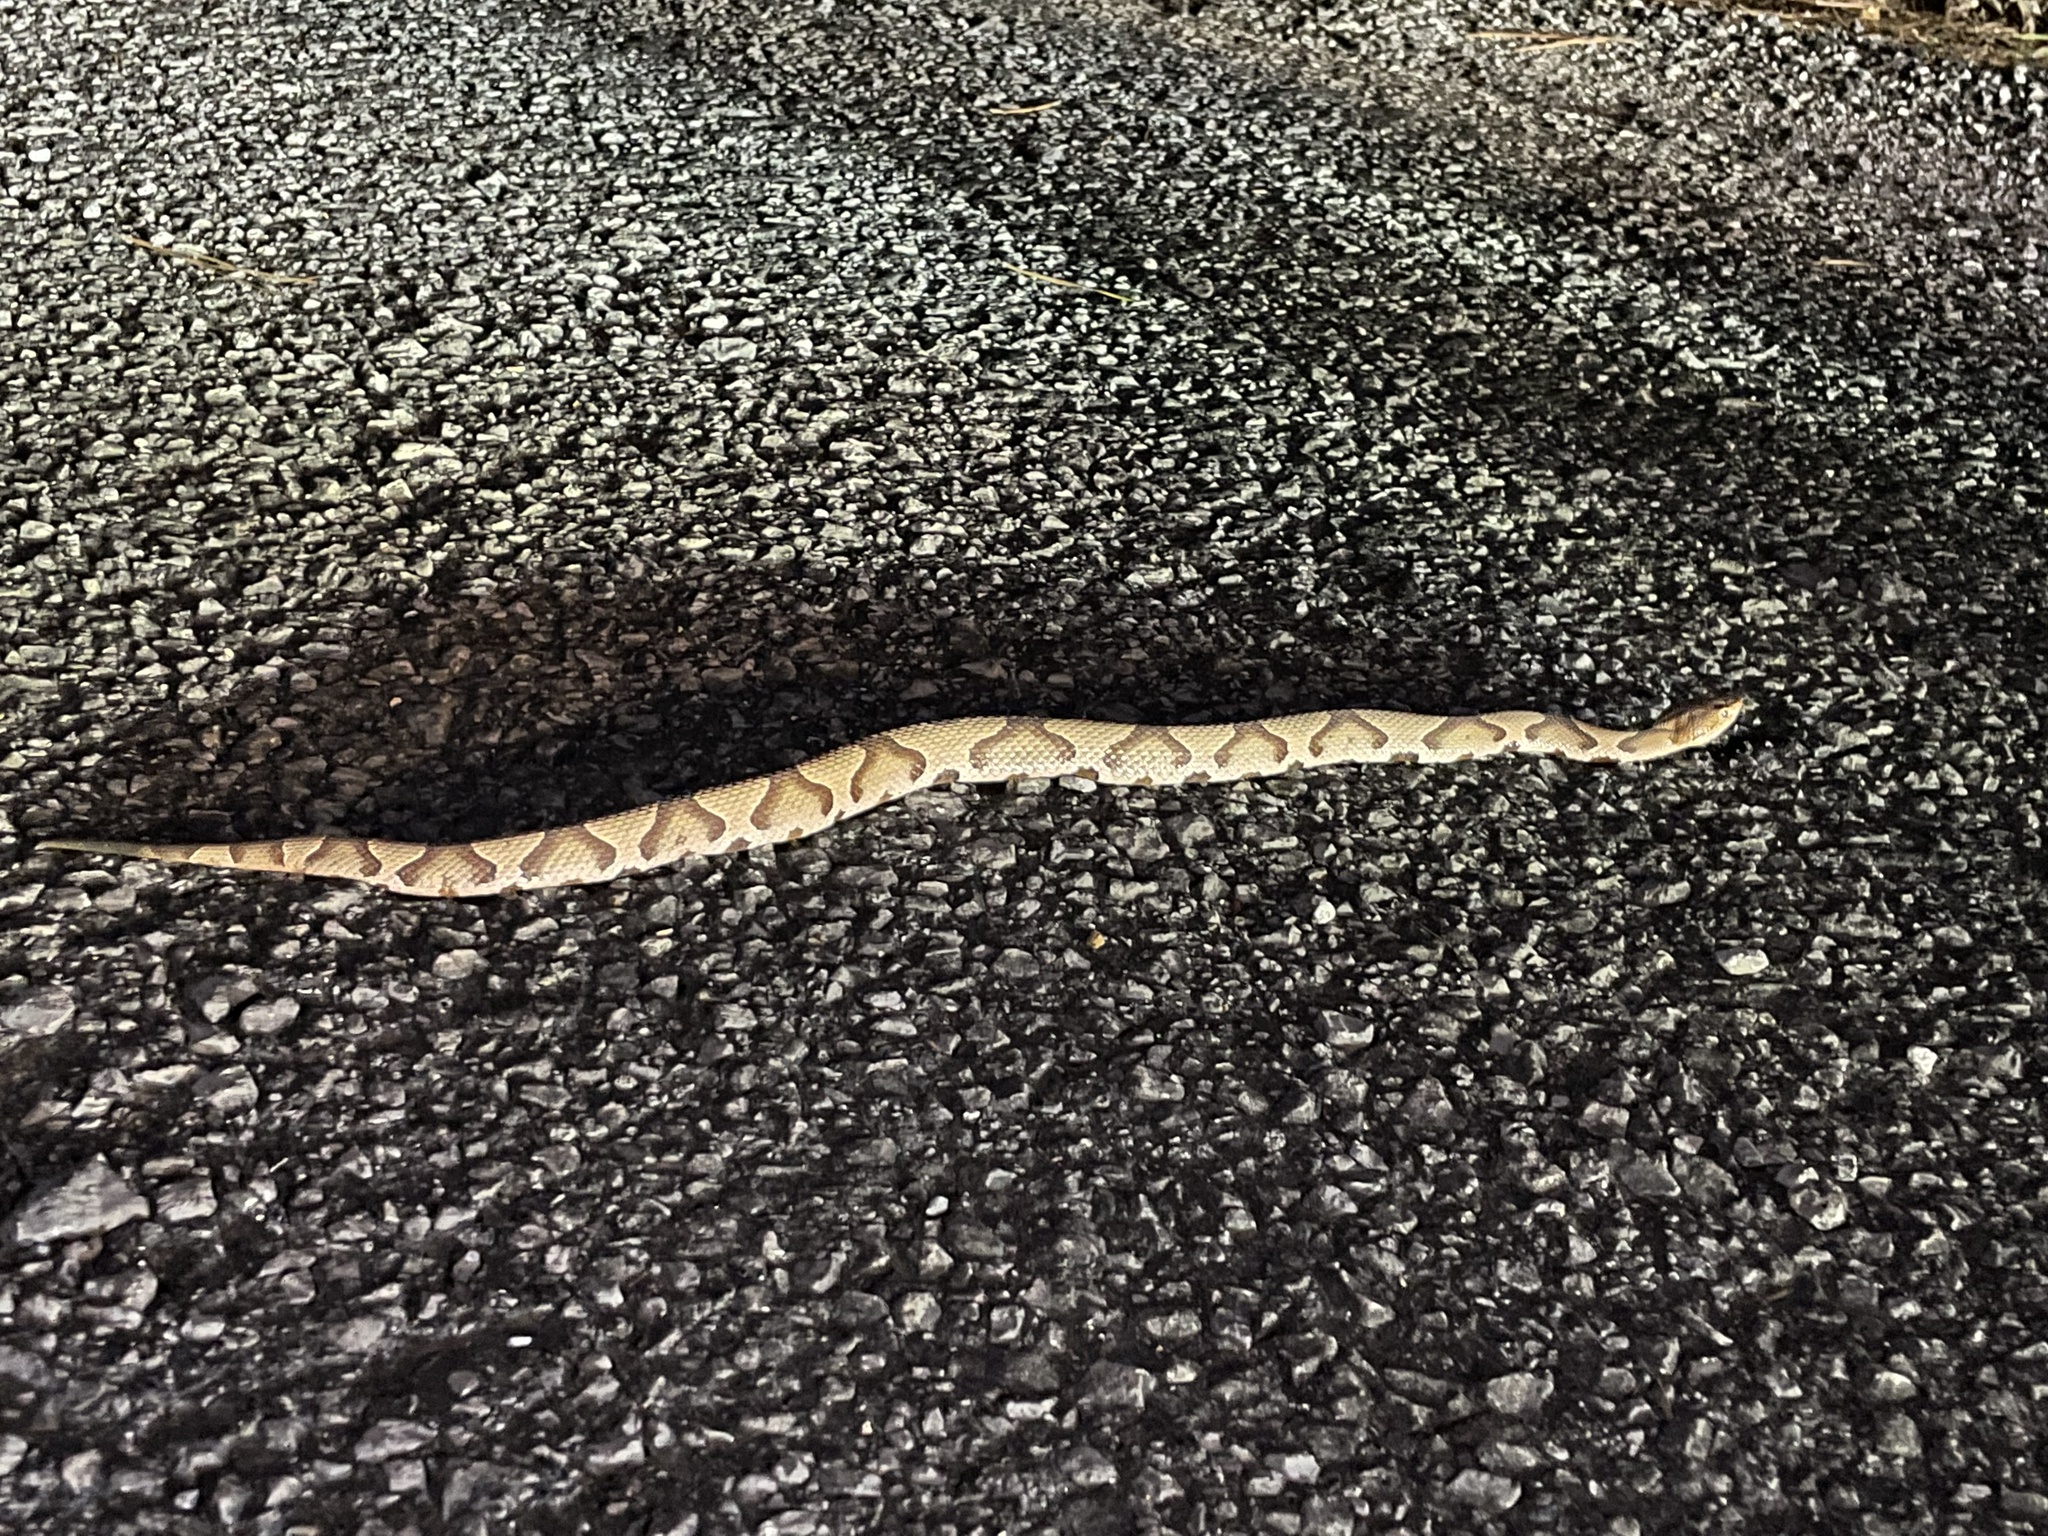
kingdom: Animalia
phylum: Chordata
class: Squamata
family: Viperidae
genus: Agkistrodon
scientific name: Agkistrodon contortrix
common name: Northern copperhead
